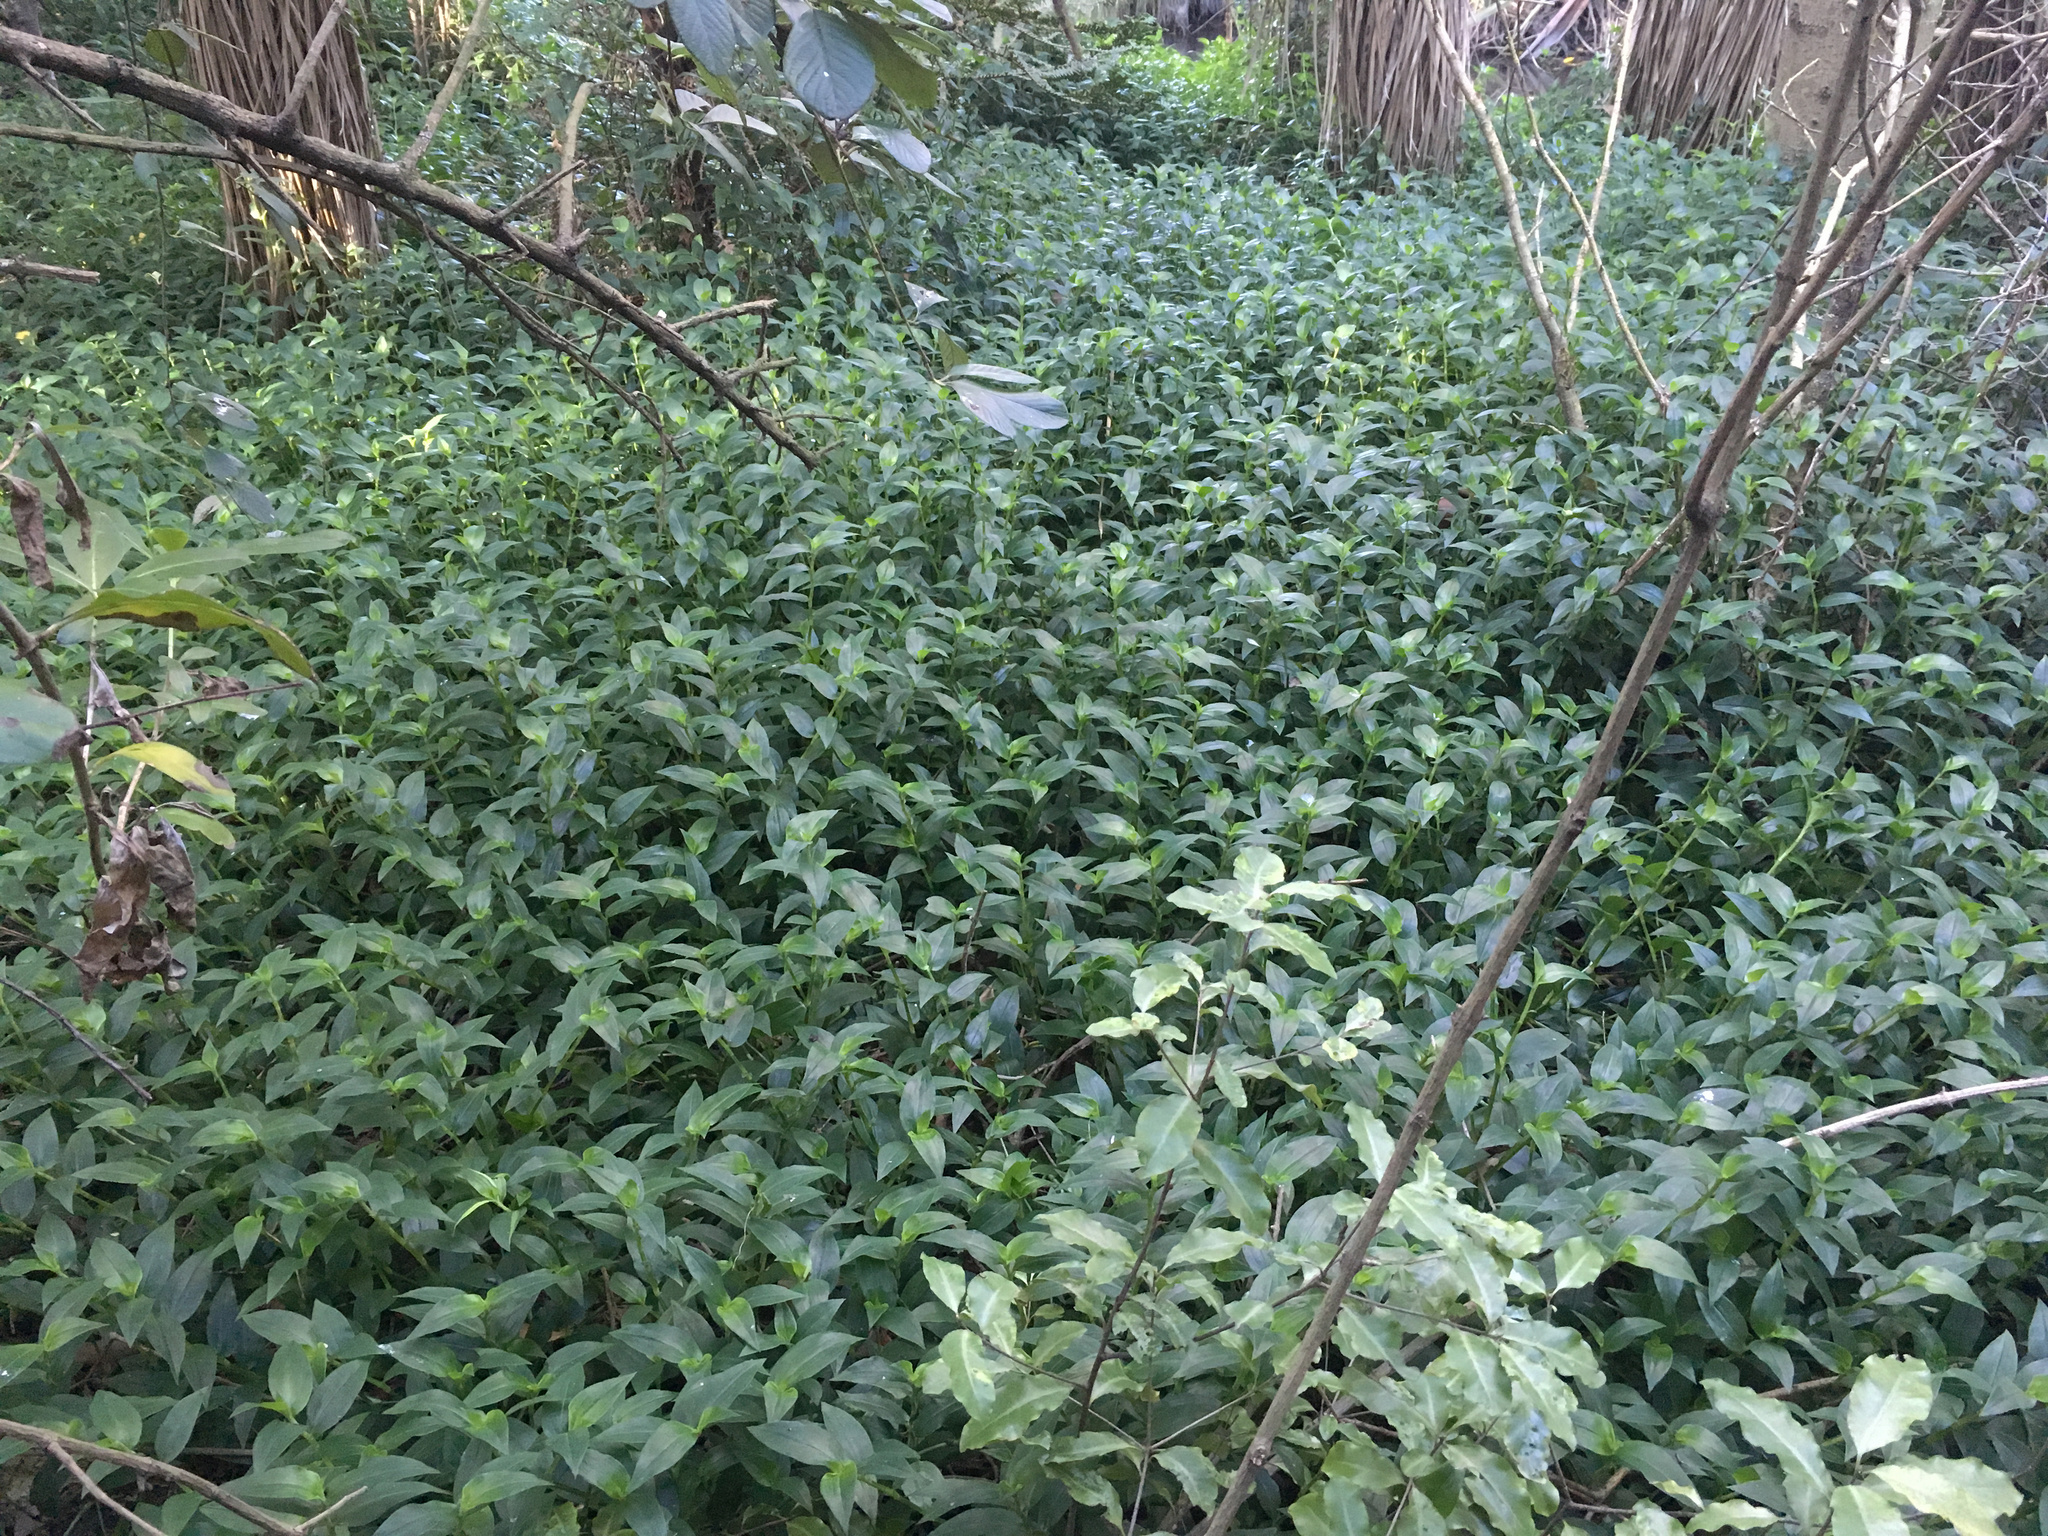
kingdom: Plantae
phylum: Tracheophyta
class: Liliopsida
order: Commelinales
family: Commelinaceae
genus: Tradescantia
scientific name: Tradescantia fluminensis
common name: Wandering-jew
